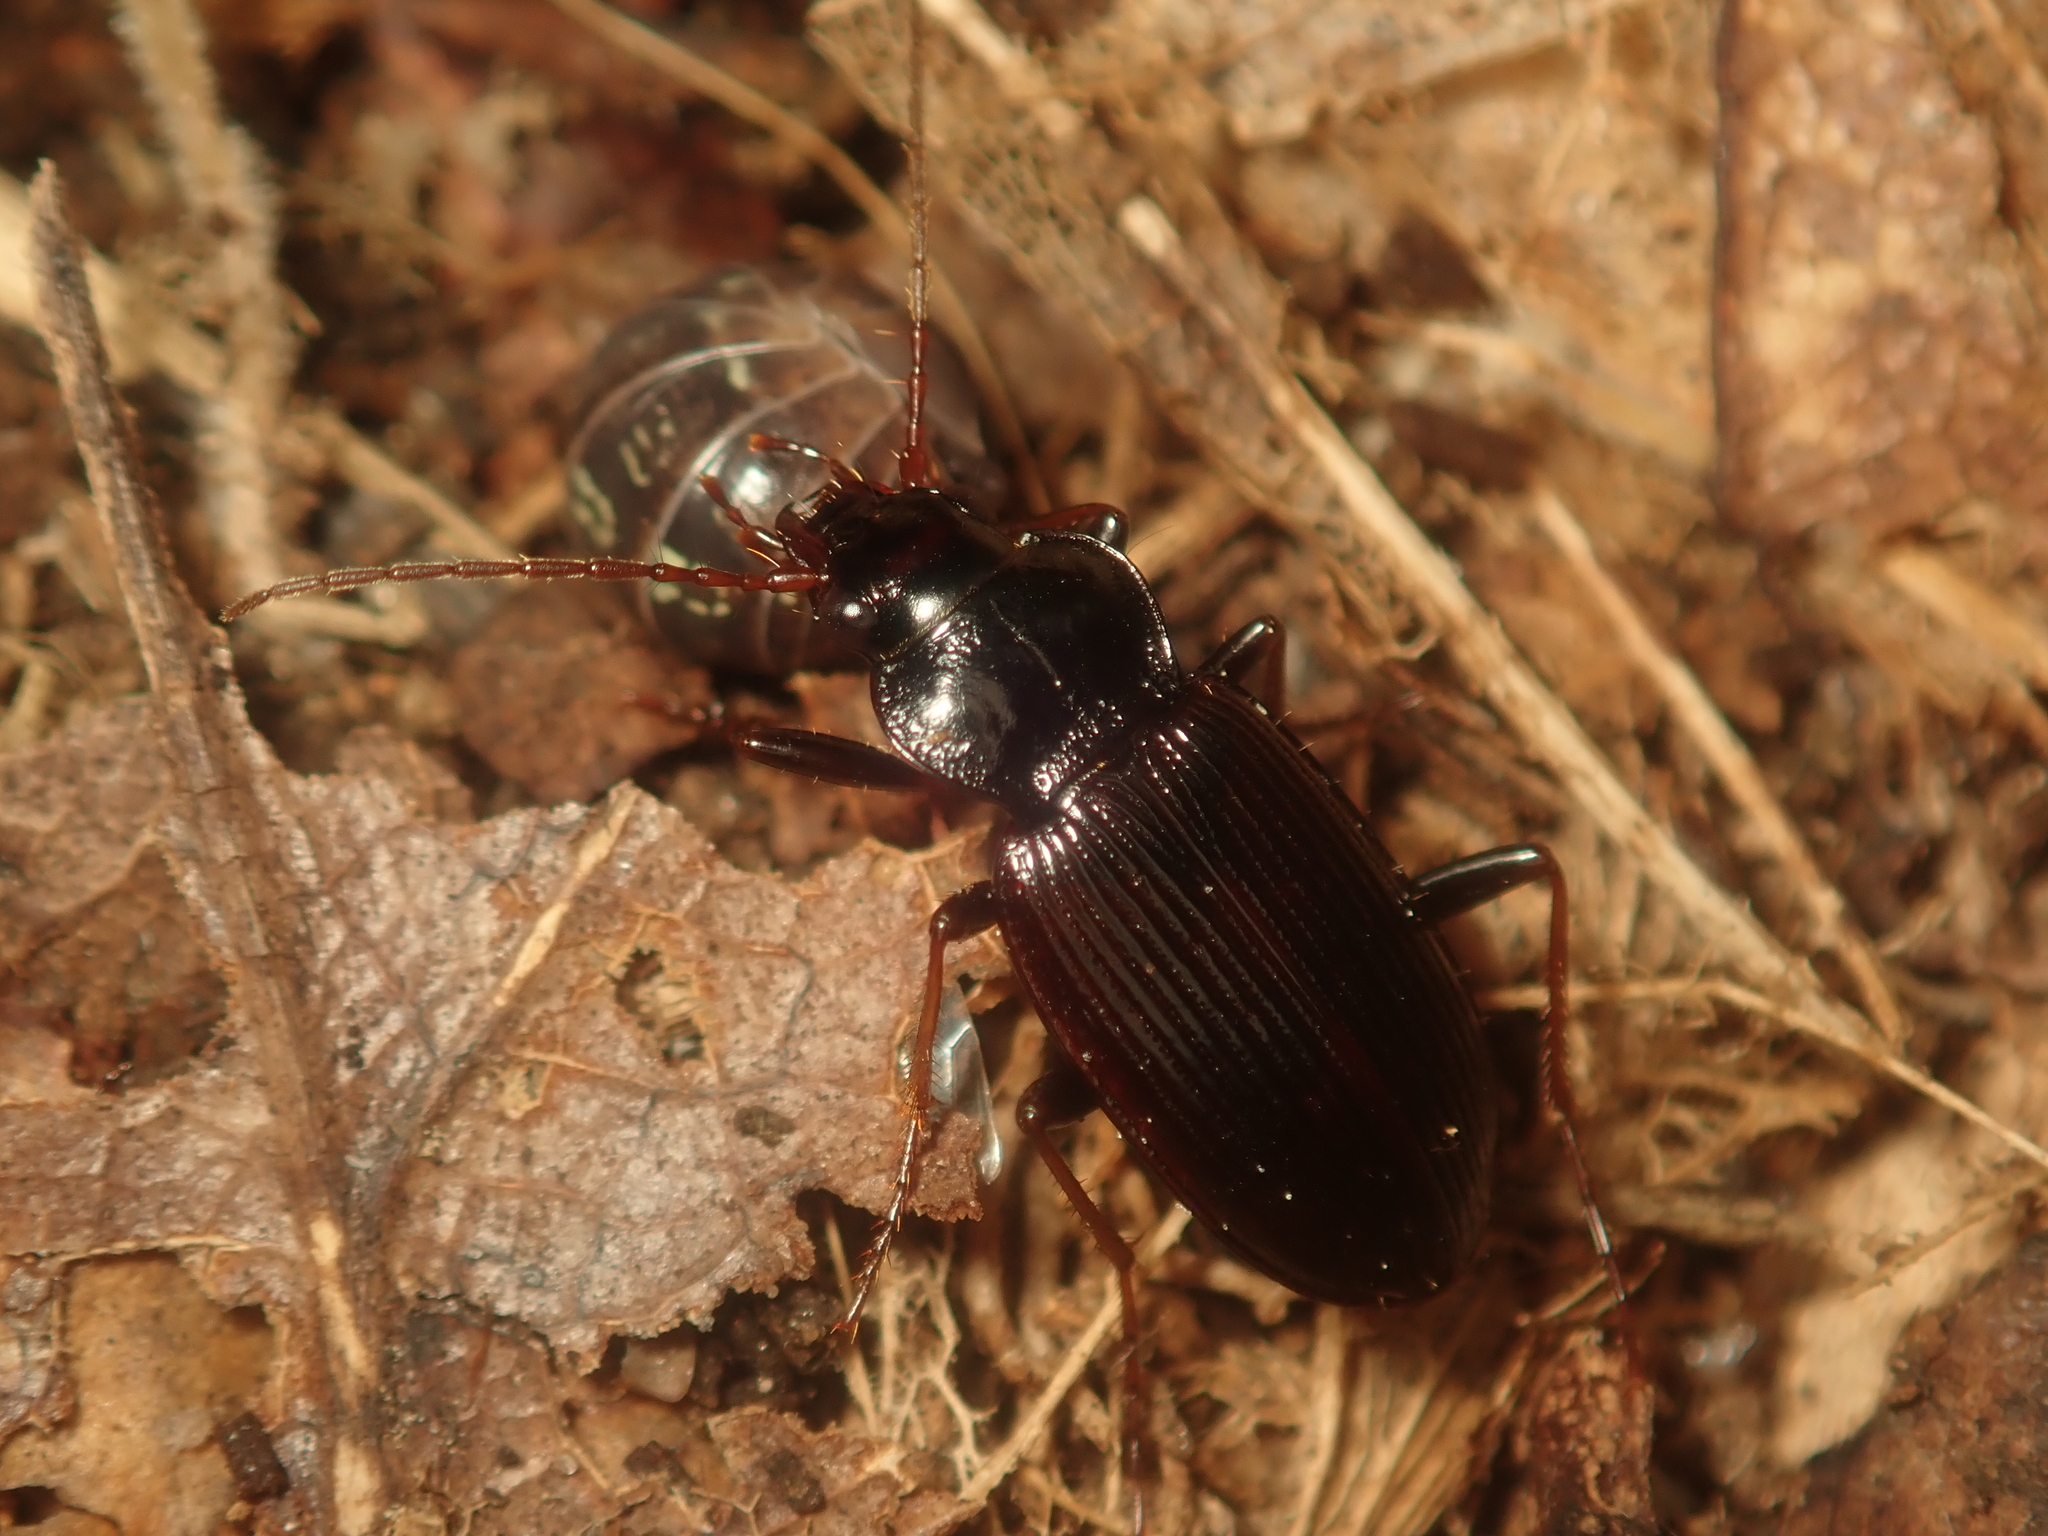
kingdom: Animalia
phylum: Arthropoda
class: Insecta
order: Coleoptera
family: Carabidae
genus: Nebria
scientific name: Nebria brevicollis
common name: Short-necked gazelle beetle
